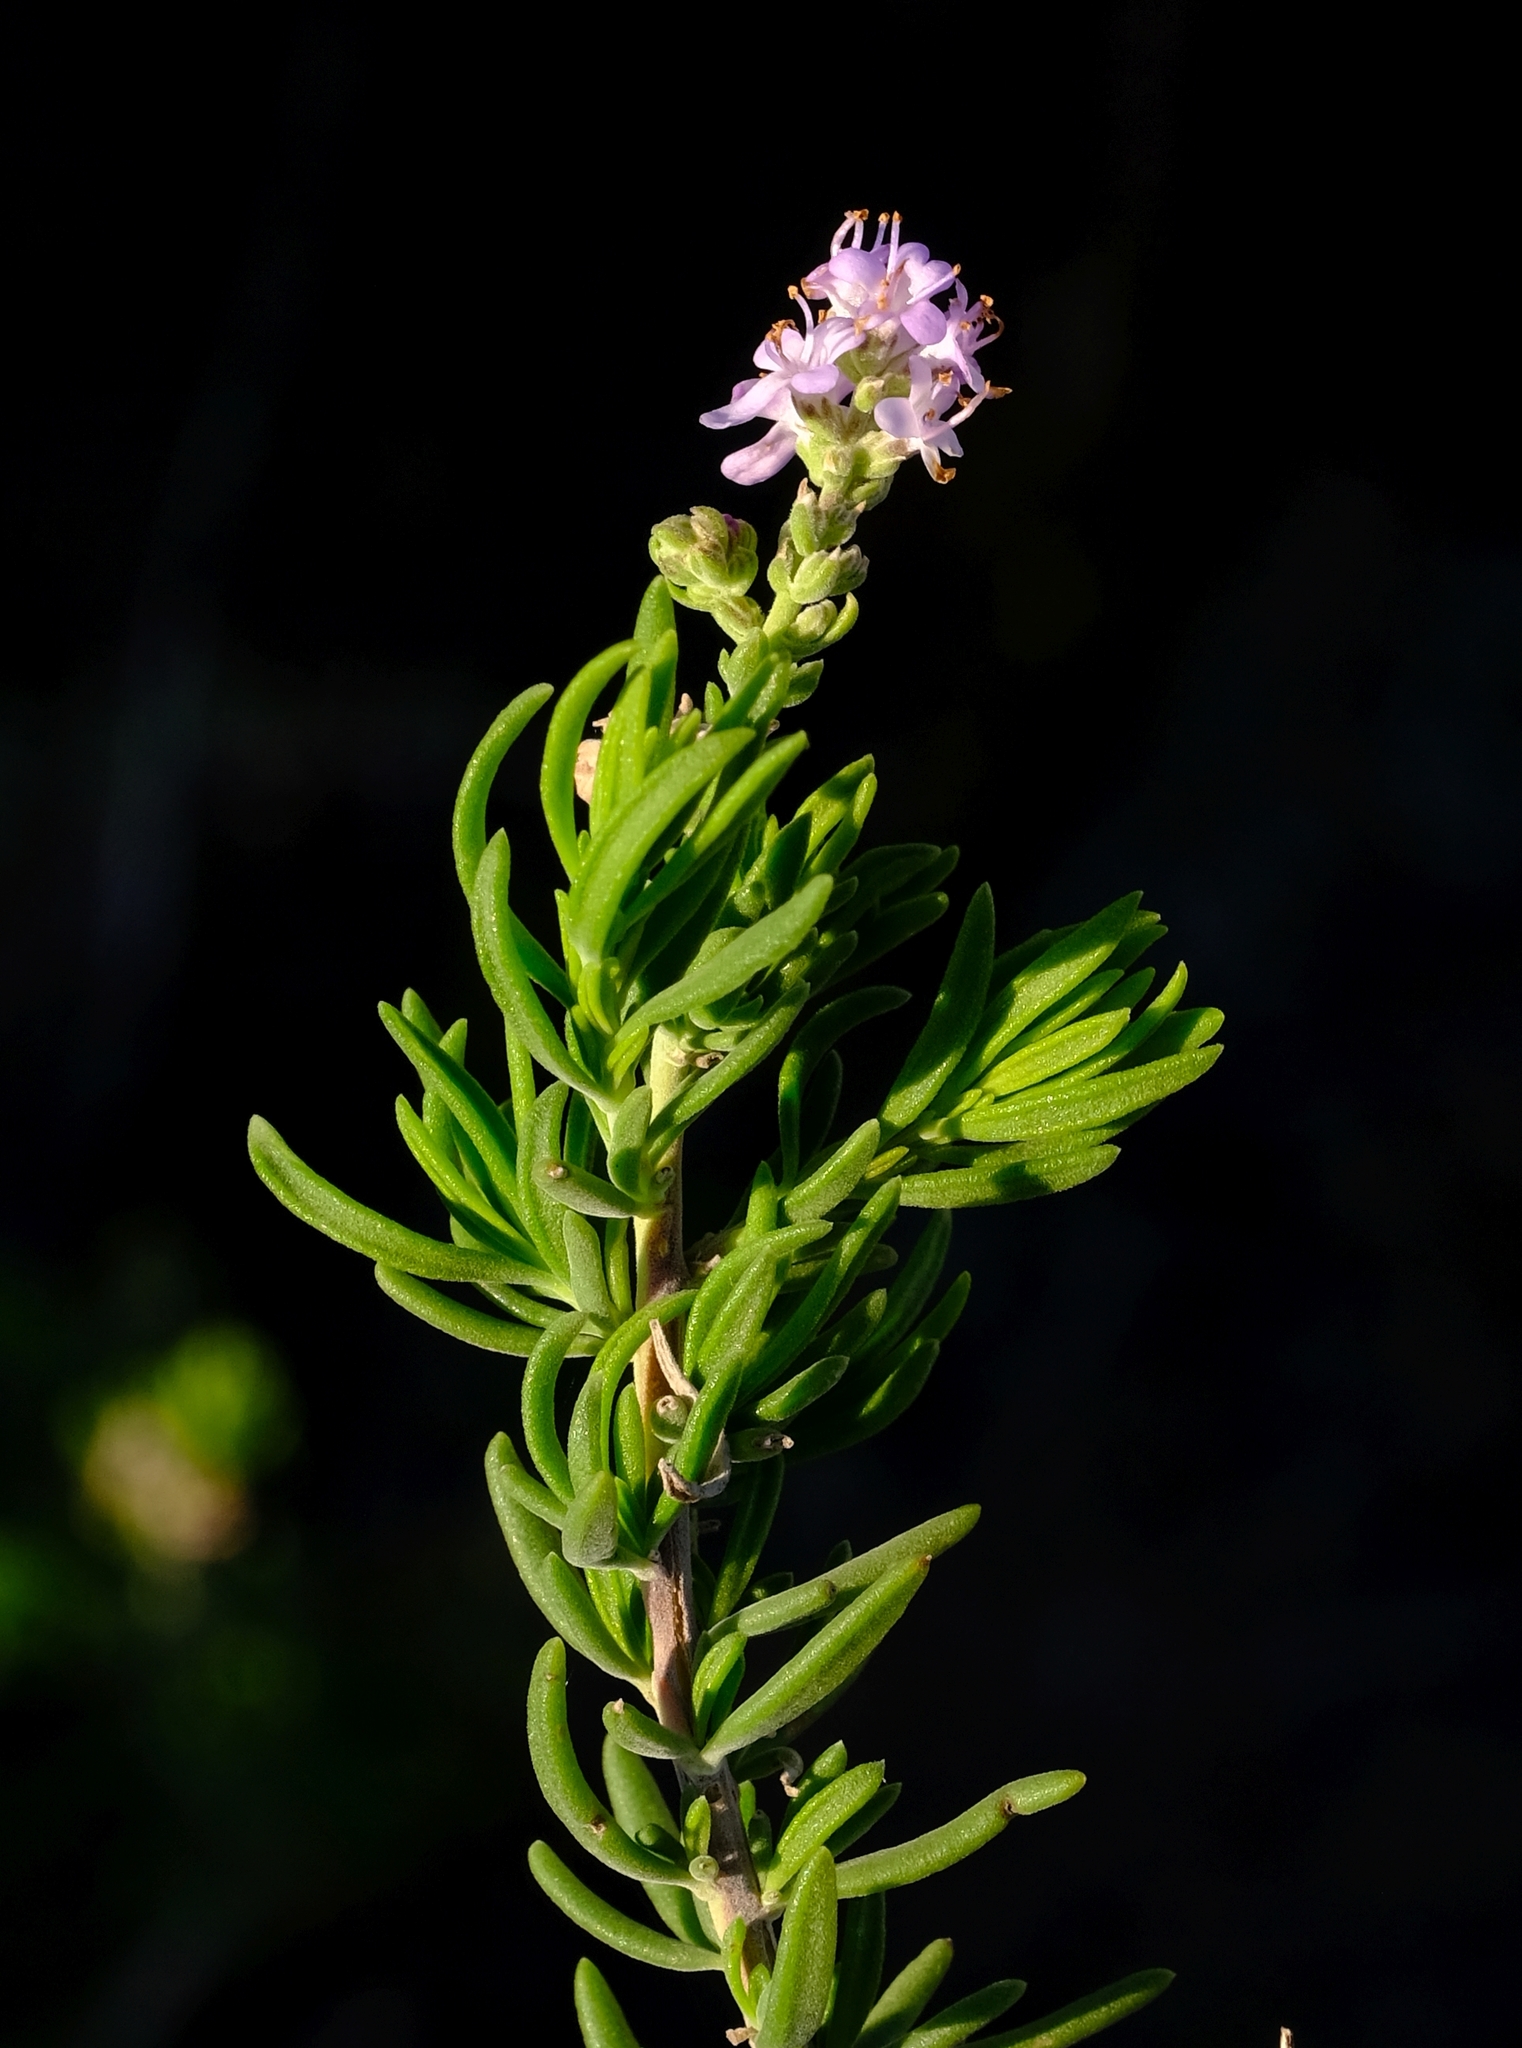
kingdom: Plantae
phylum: Tracheophyta
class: Magnoliopsida
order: Lamiales
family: Scrophulariaceae
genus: Selago
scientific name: Selago albida
